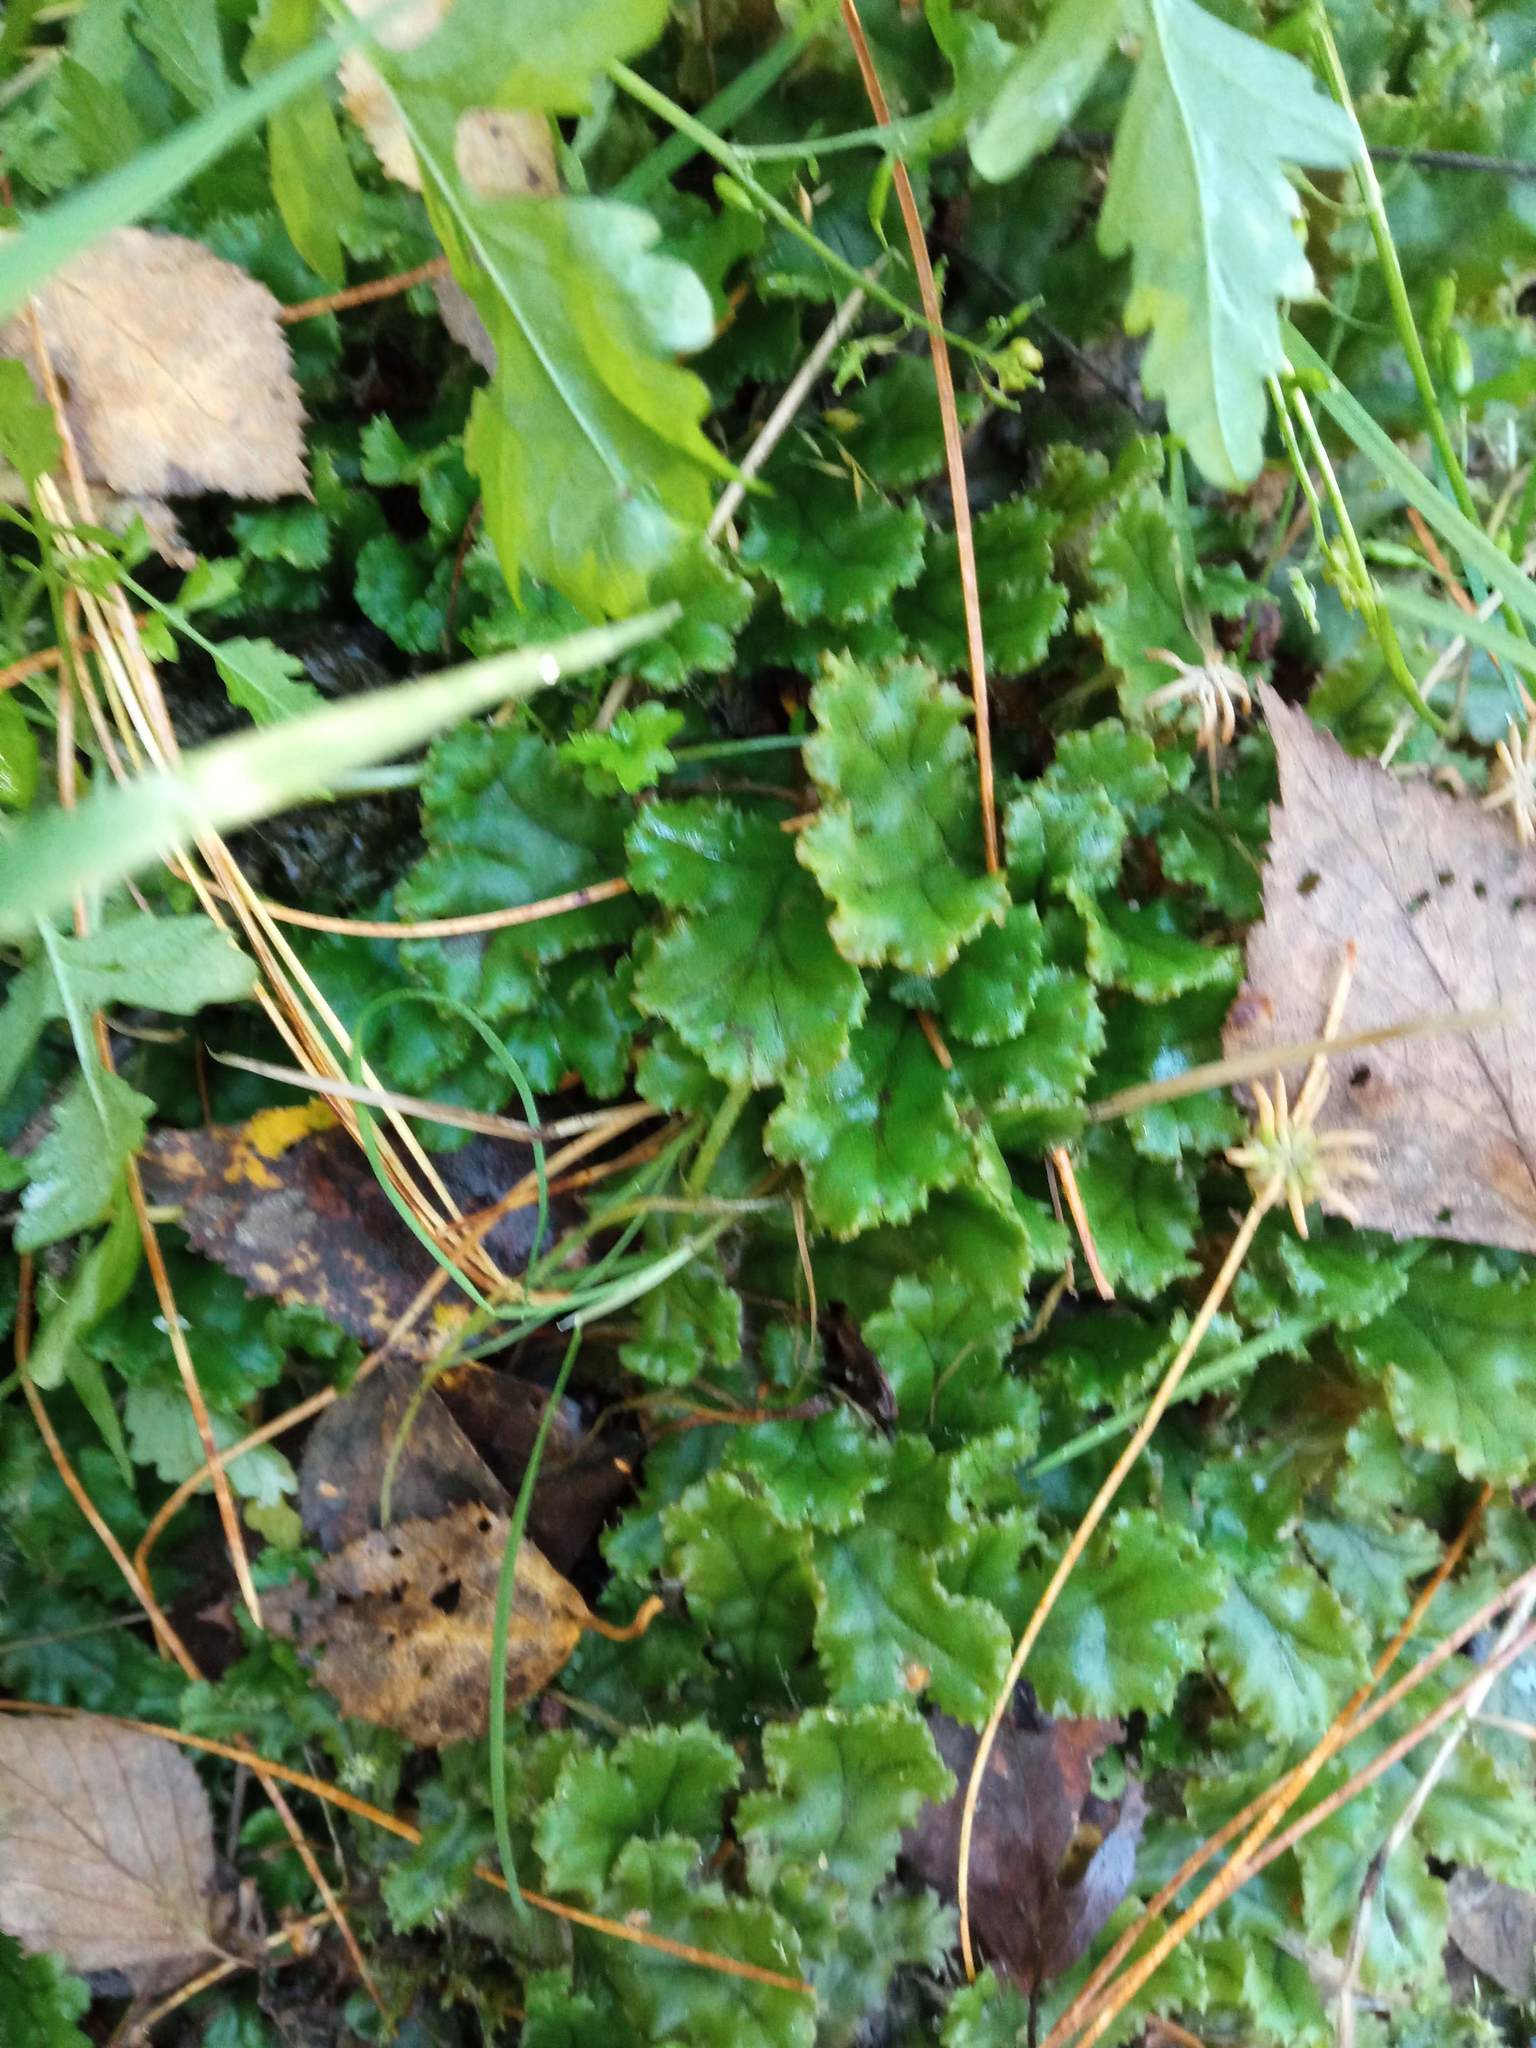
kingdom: Plantae
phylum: Marchantiophyta
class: Marchantiopsida
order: Marchantiales
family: Marchantiaceae
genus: Marchantia
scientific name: Marchantia polymorpha
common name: Common liverwort
